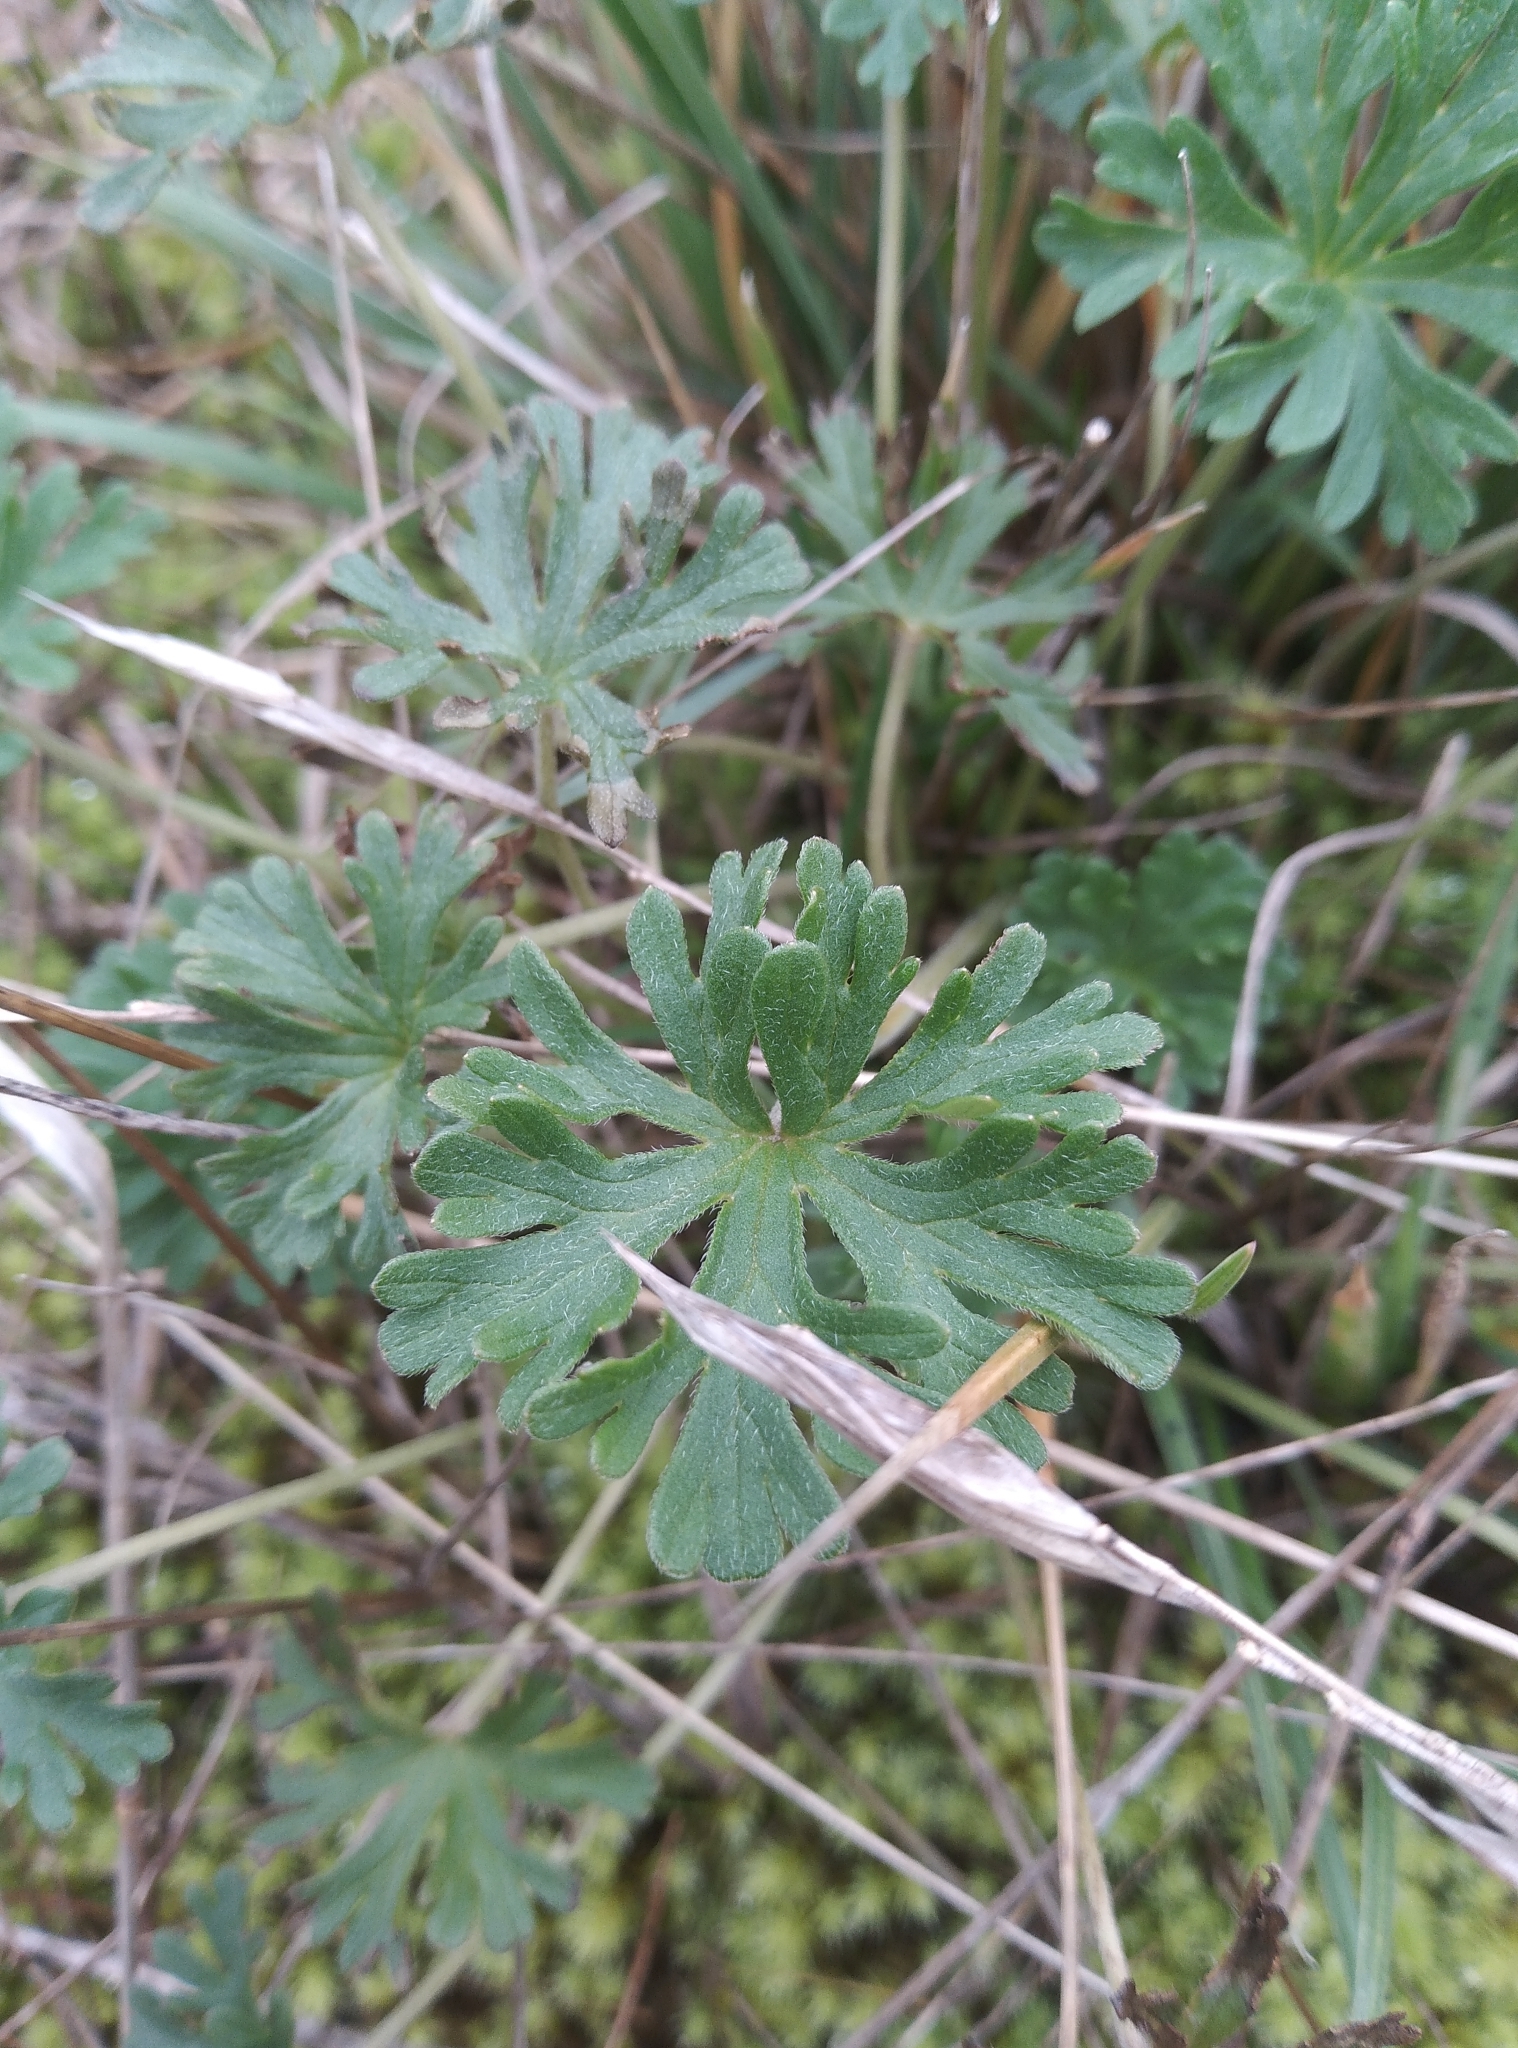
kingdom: Plantae
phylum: Tracheophyta
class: Magnoliopsida
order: Geraniales
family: Geraniaceae
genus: Geranium
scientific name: Geranium retrorsum
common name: New zealand geranium
